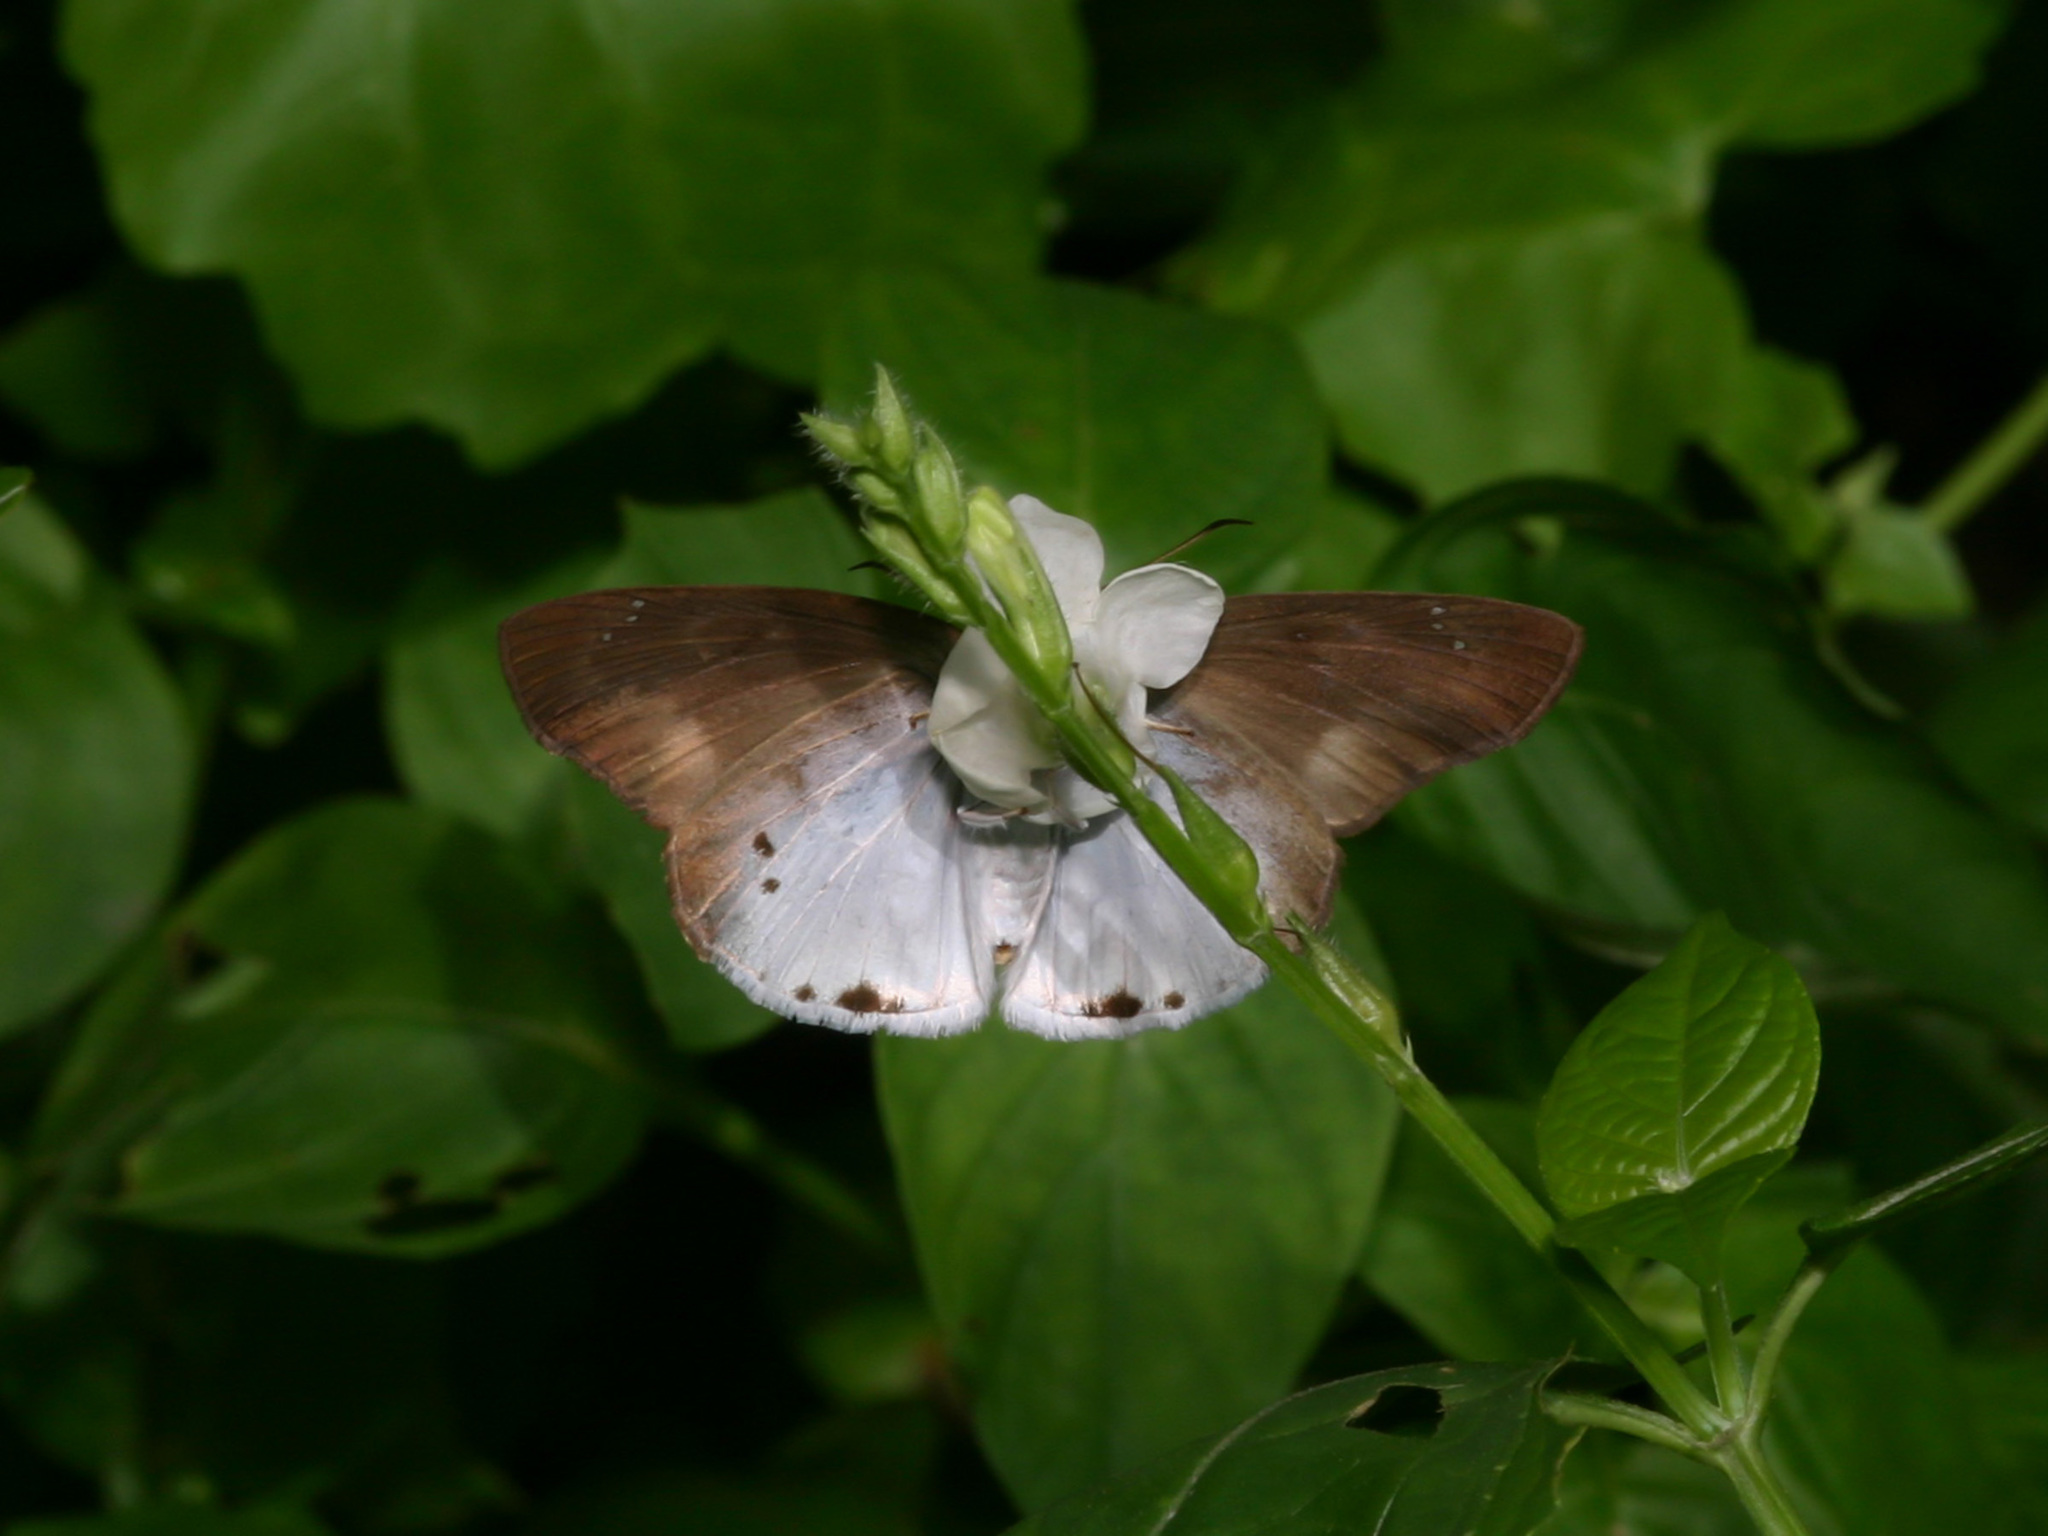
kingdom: Animalia
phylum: Arthropoda
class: Insecta
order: Lepidoptera
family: Hesperiidae
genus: Tagiades
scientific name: Tagiades gana
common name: Suffused snow flat
